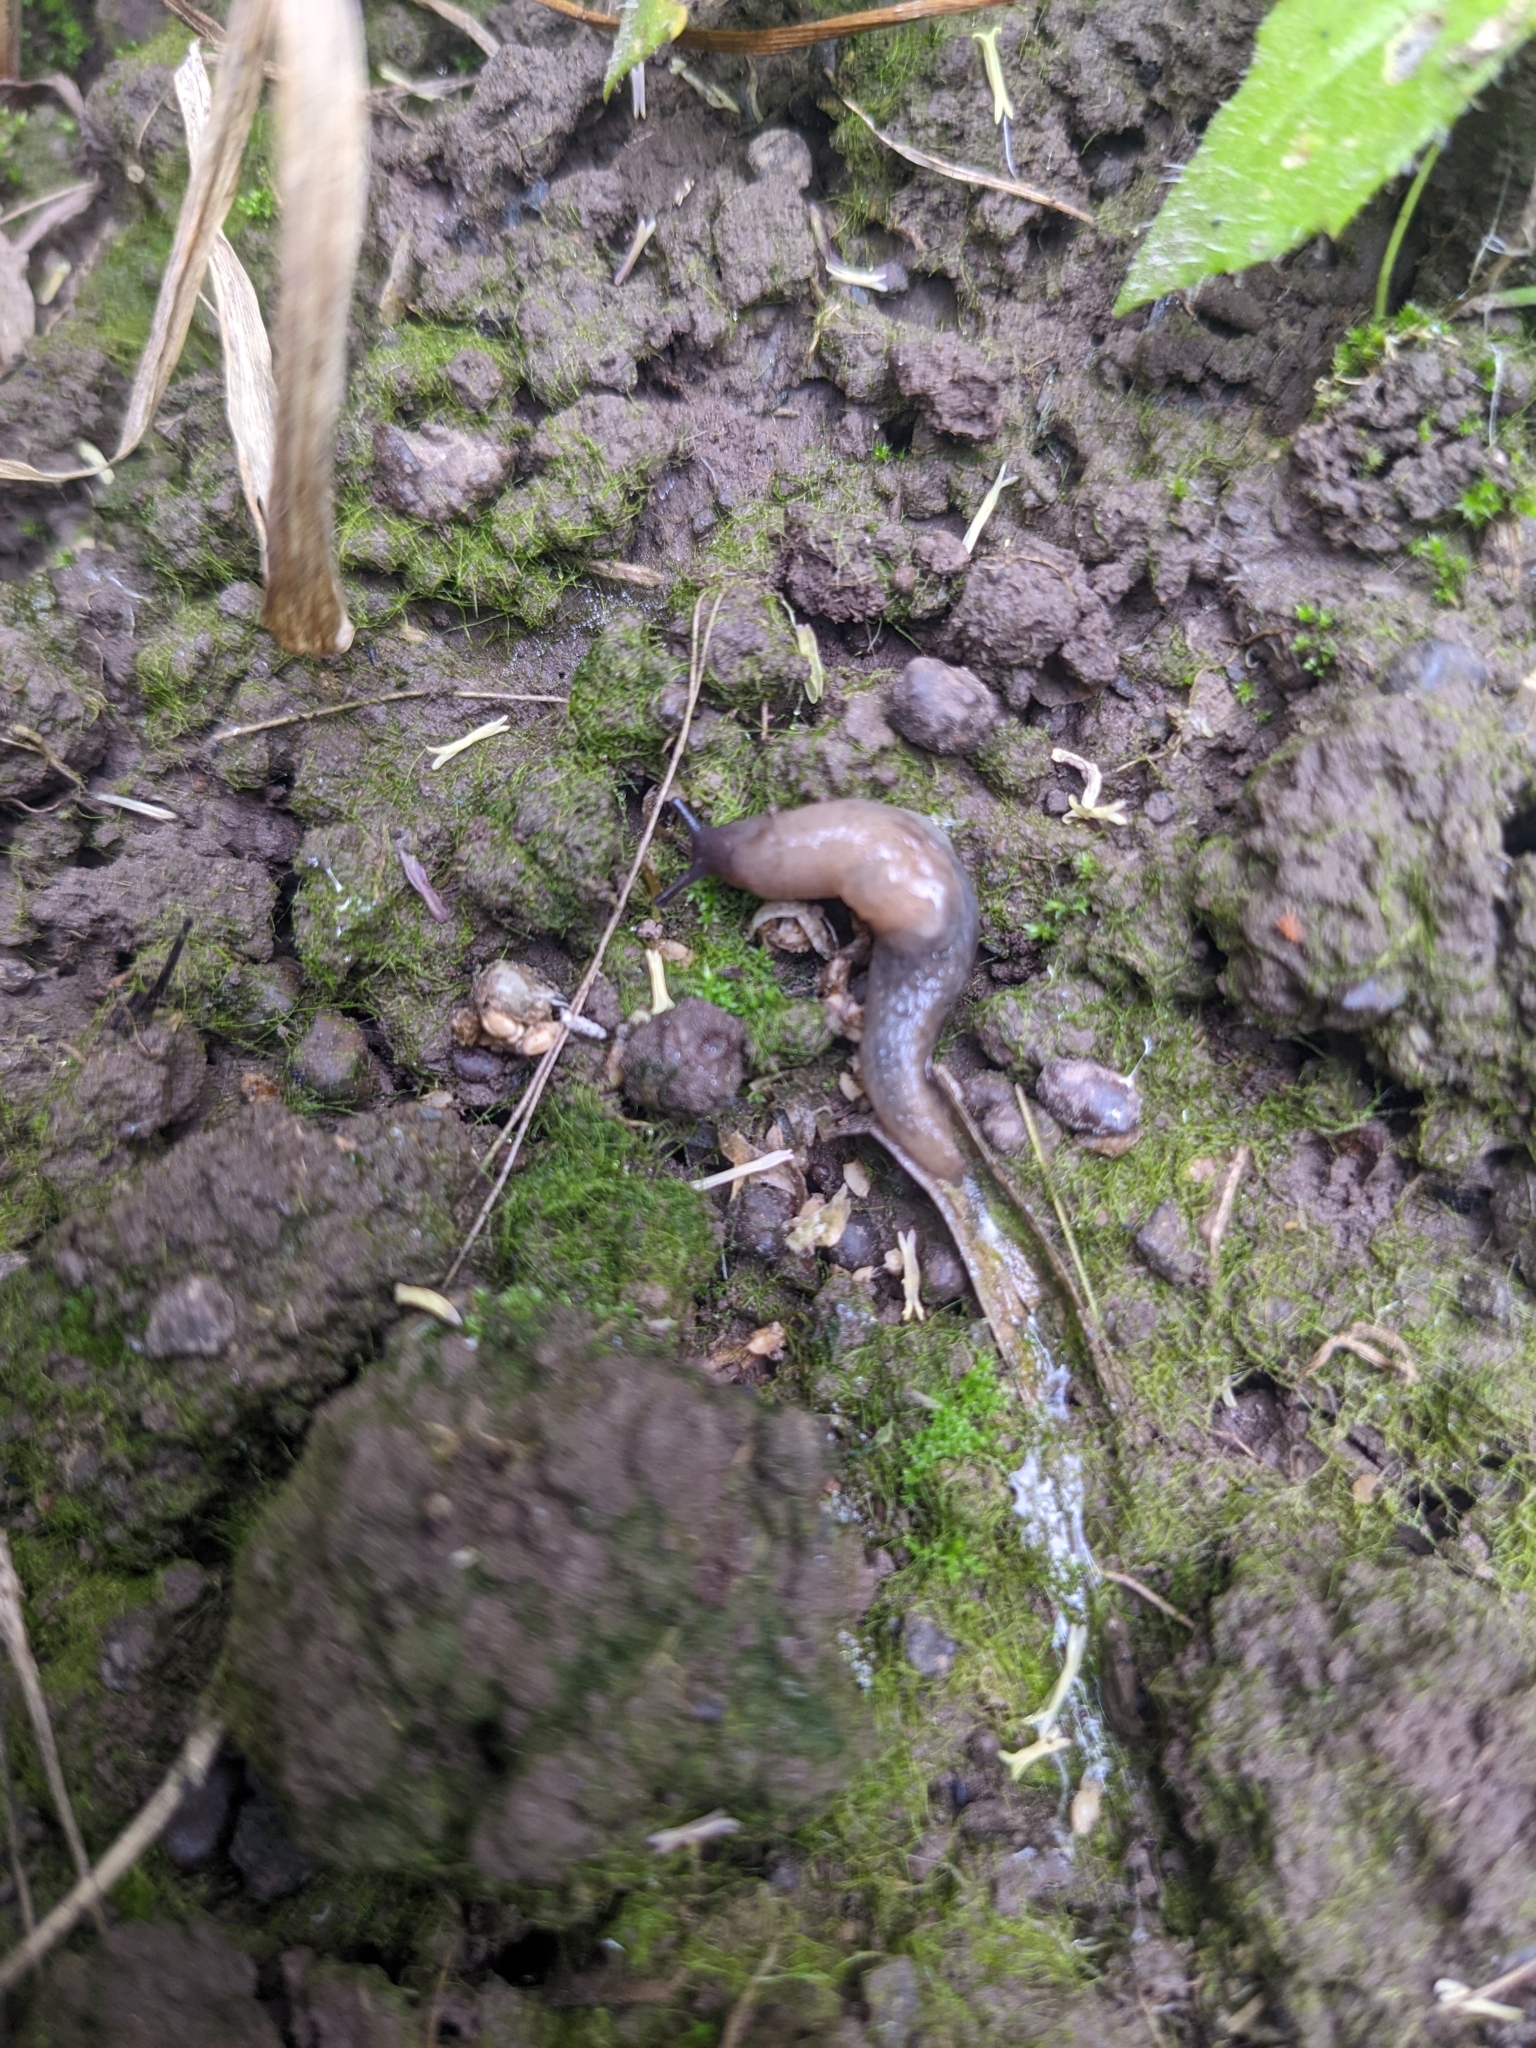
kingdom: Animalia
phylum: Mollusca
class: Gastropoda
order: Stylommatophora
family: Agriolimacidae
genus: Deroceras
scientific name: Deroceras invadens
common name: Caruana's slug
